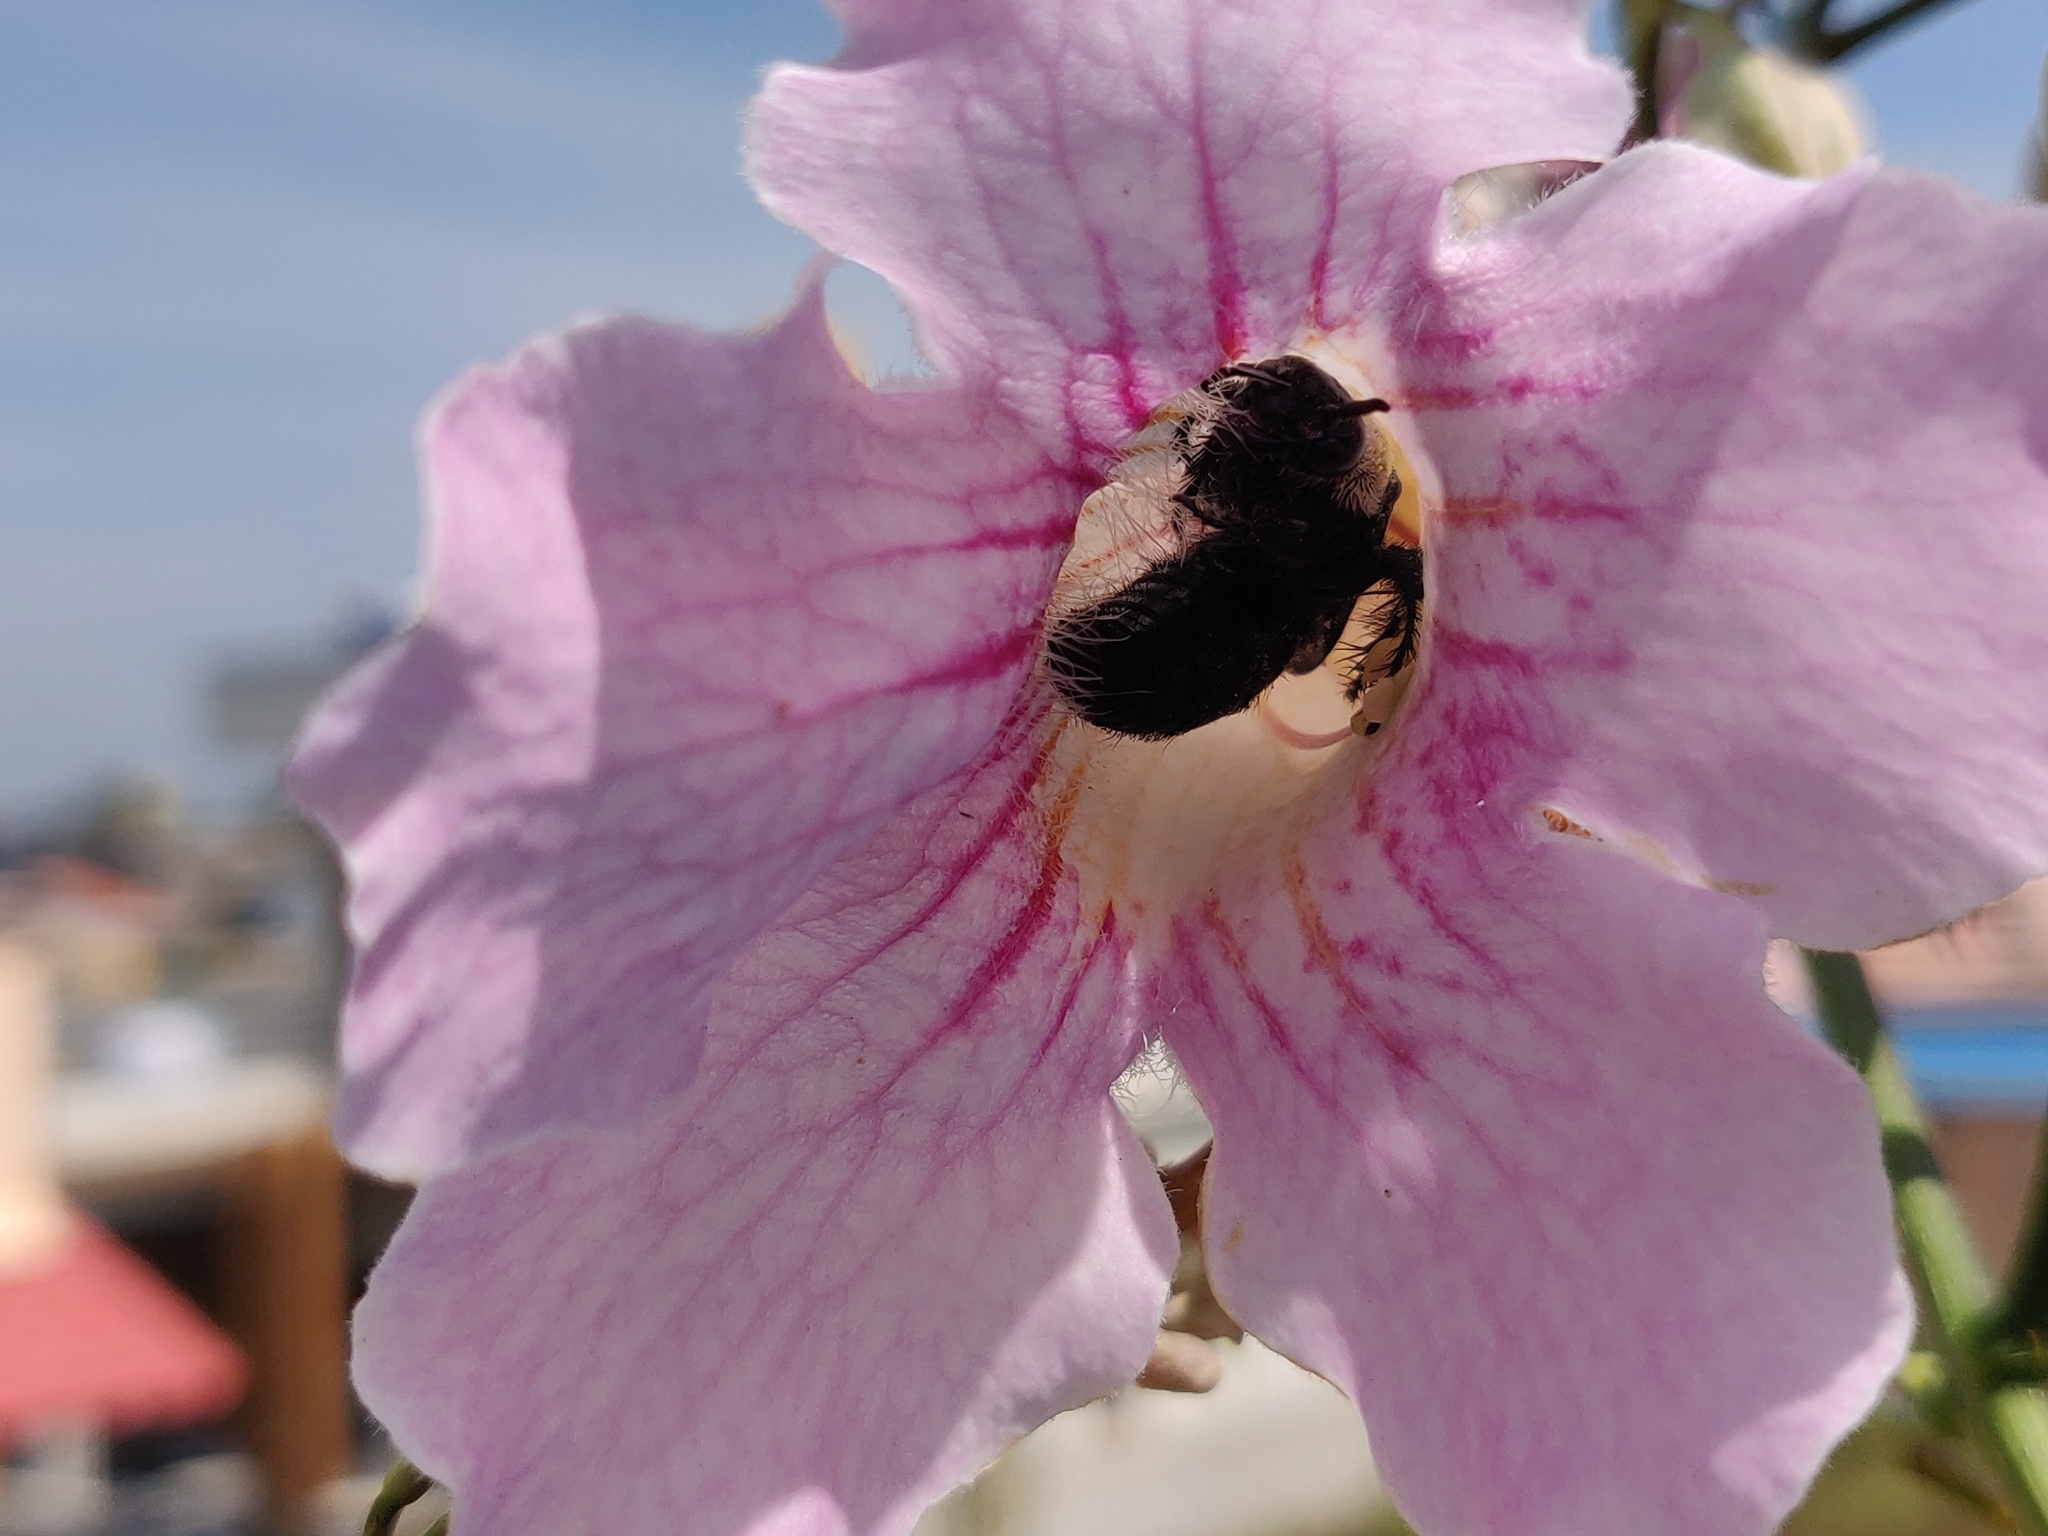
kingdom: Animalia
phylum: Arthropoda
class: Insecta
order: Hymenoptera
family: Scoliidae
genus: Campsomeriella
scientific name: Campsomeriella collaris
